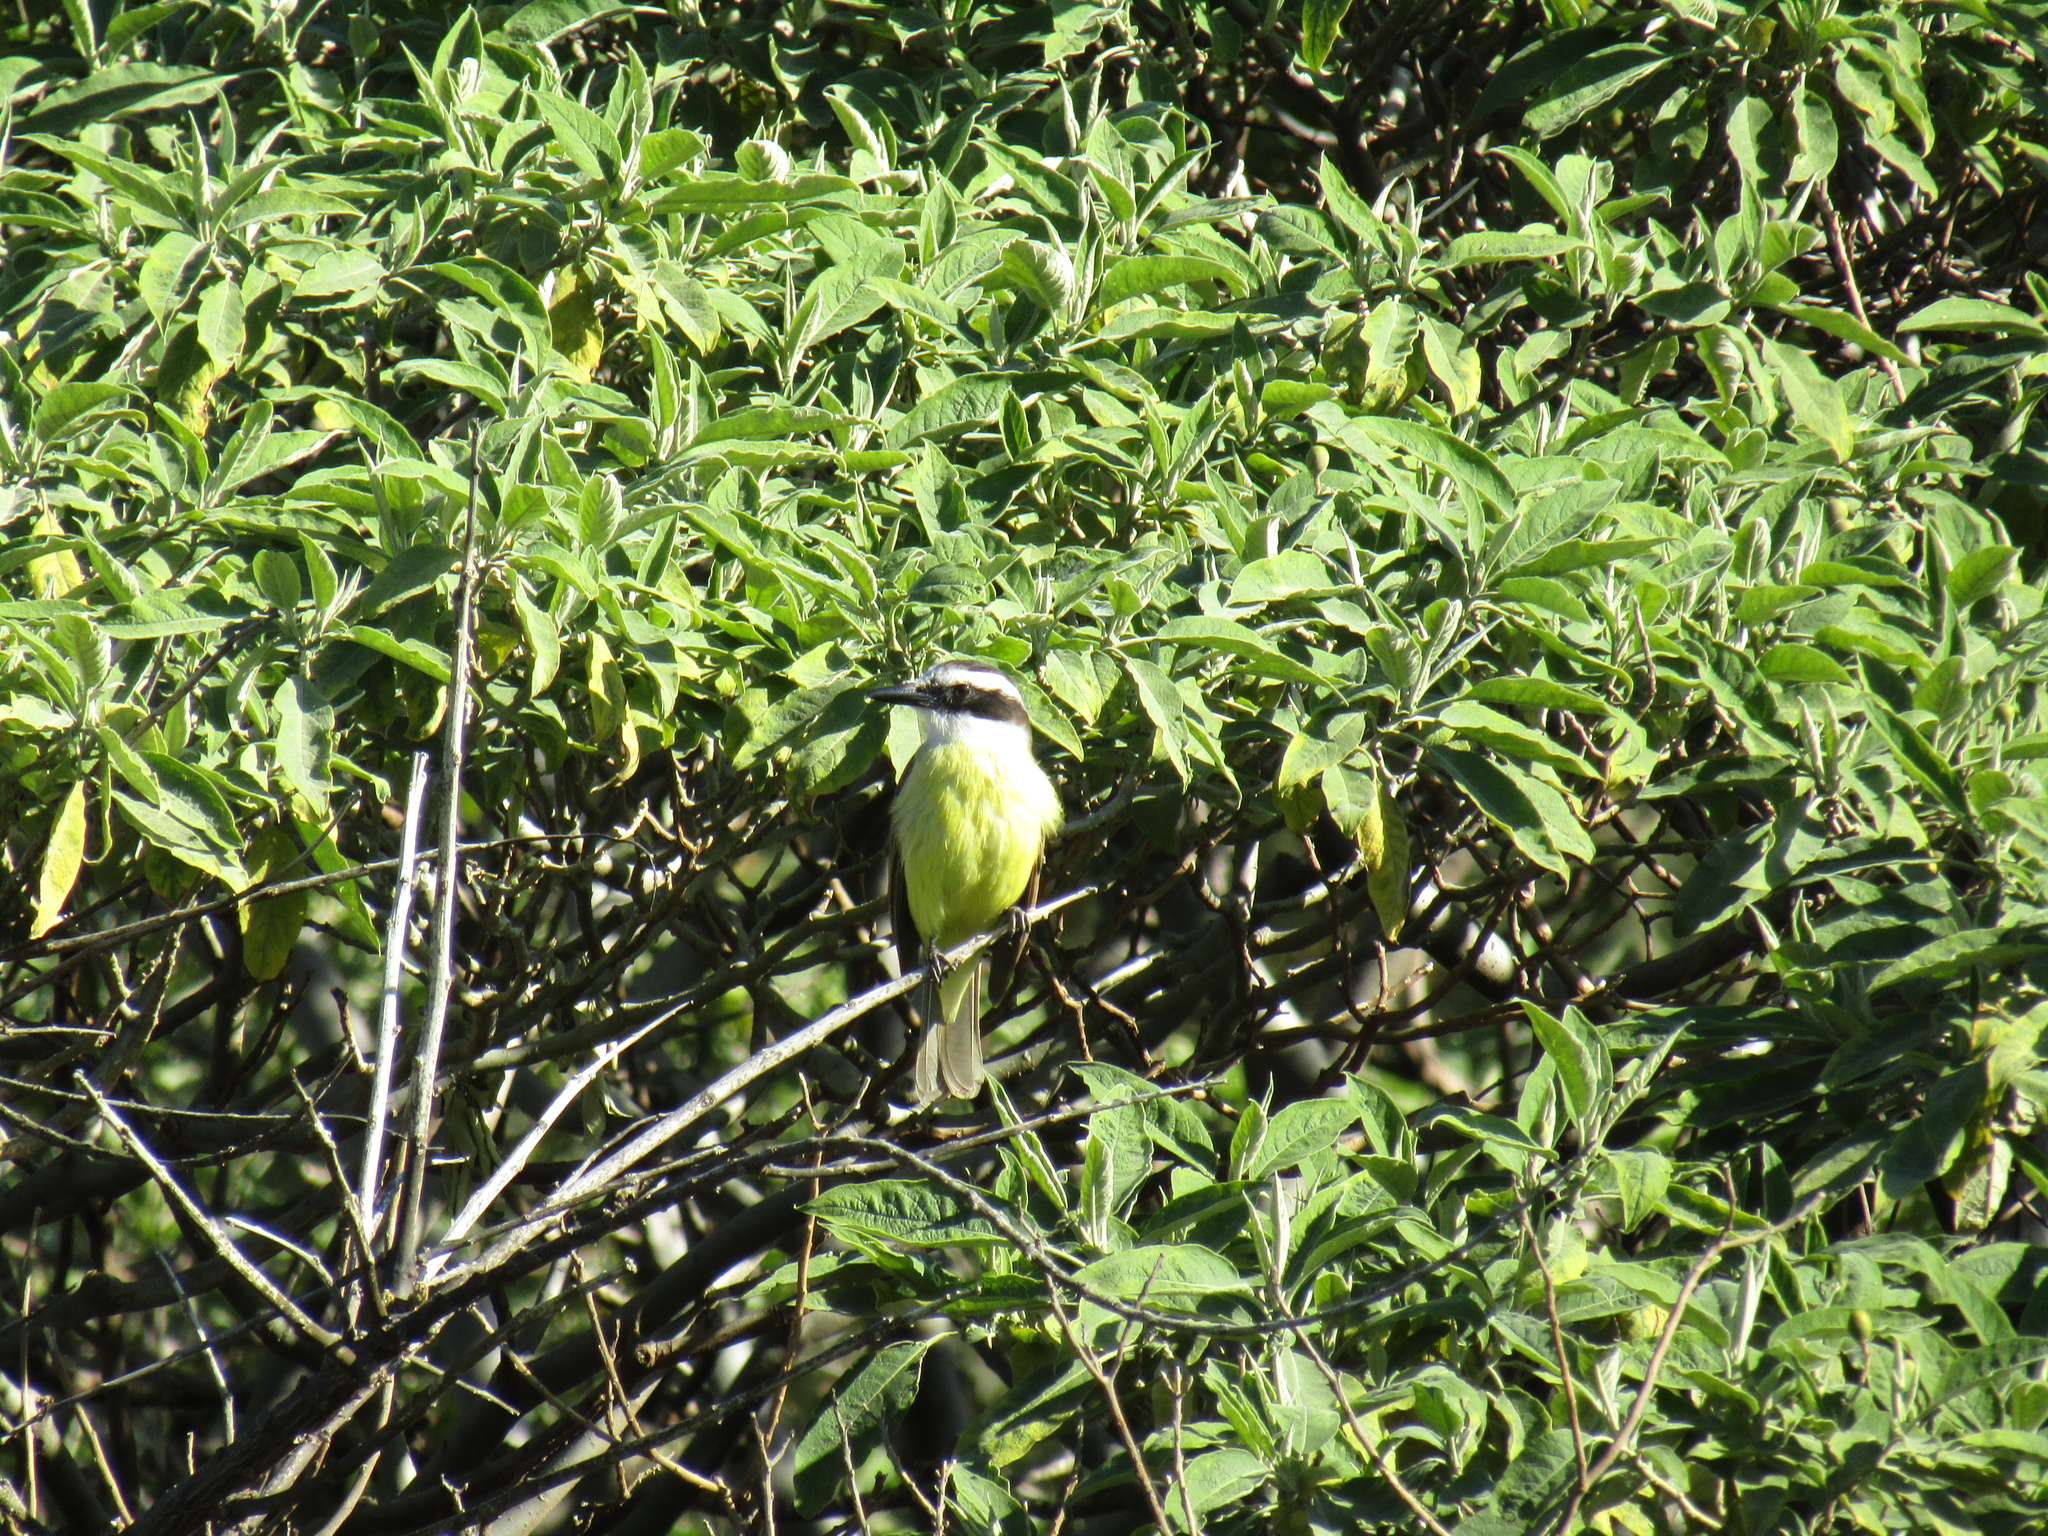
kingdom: Animalia
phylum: Chordata
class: Aves
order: Passeriformes
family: Tyrannidae
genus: Pitangus
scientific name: Pitangus sulphuratus
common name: Great kiskadee
